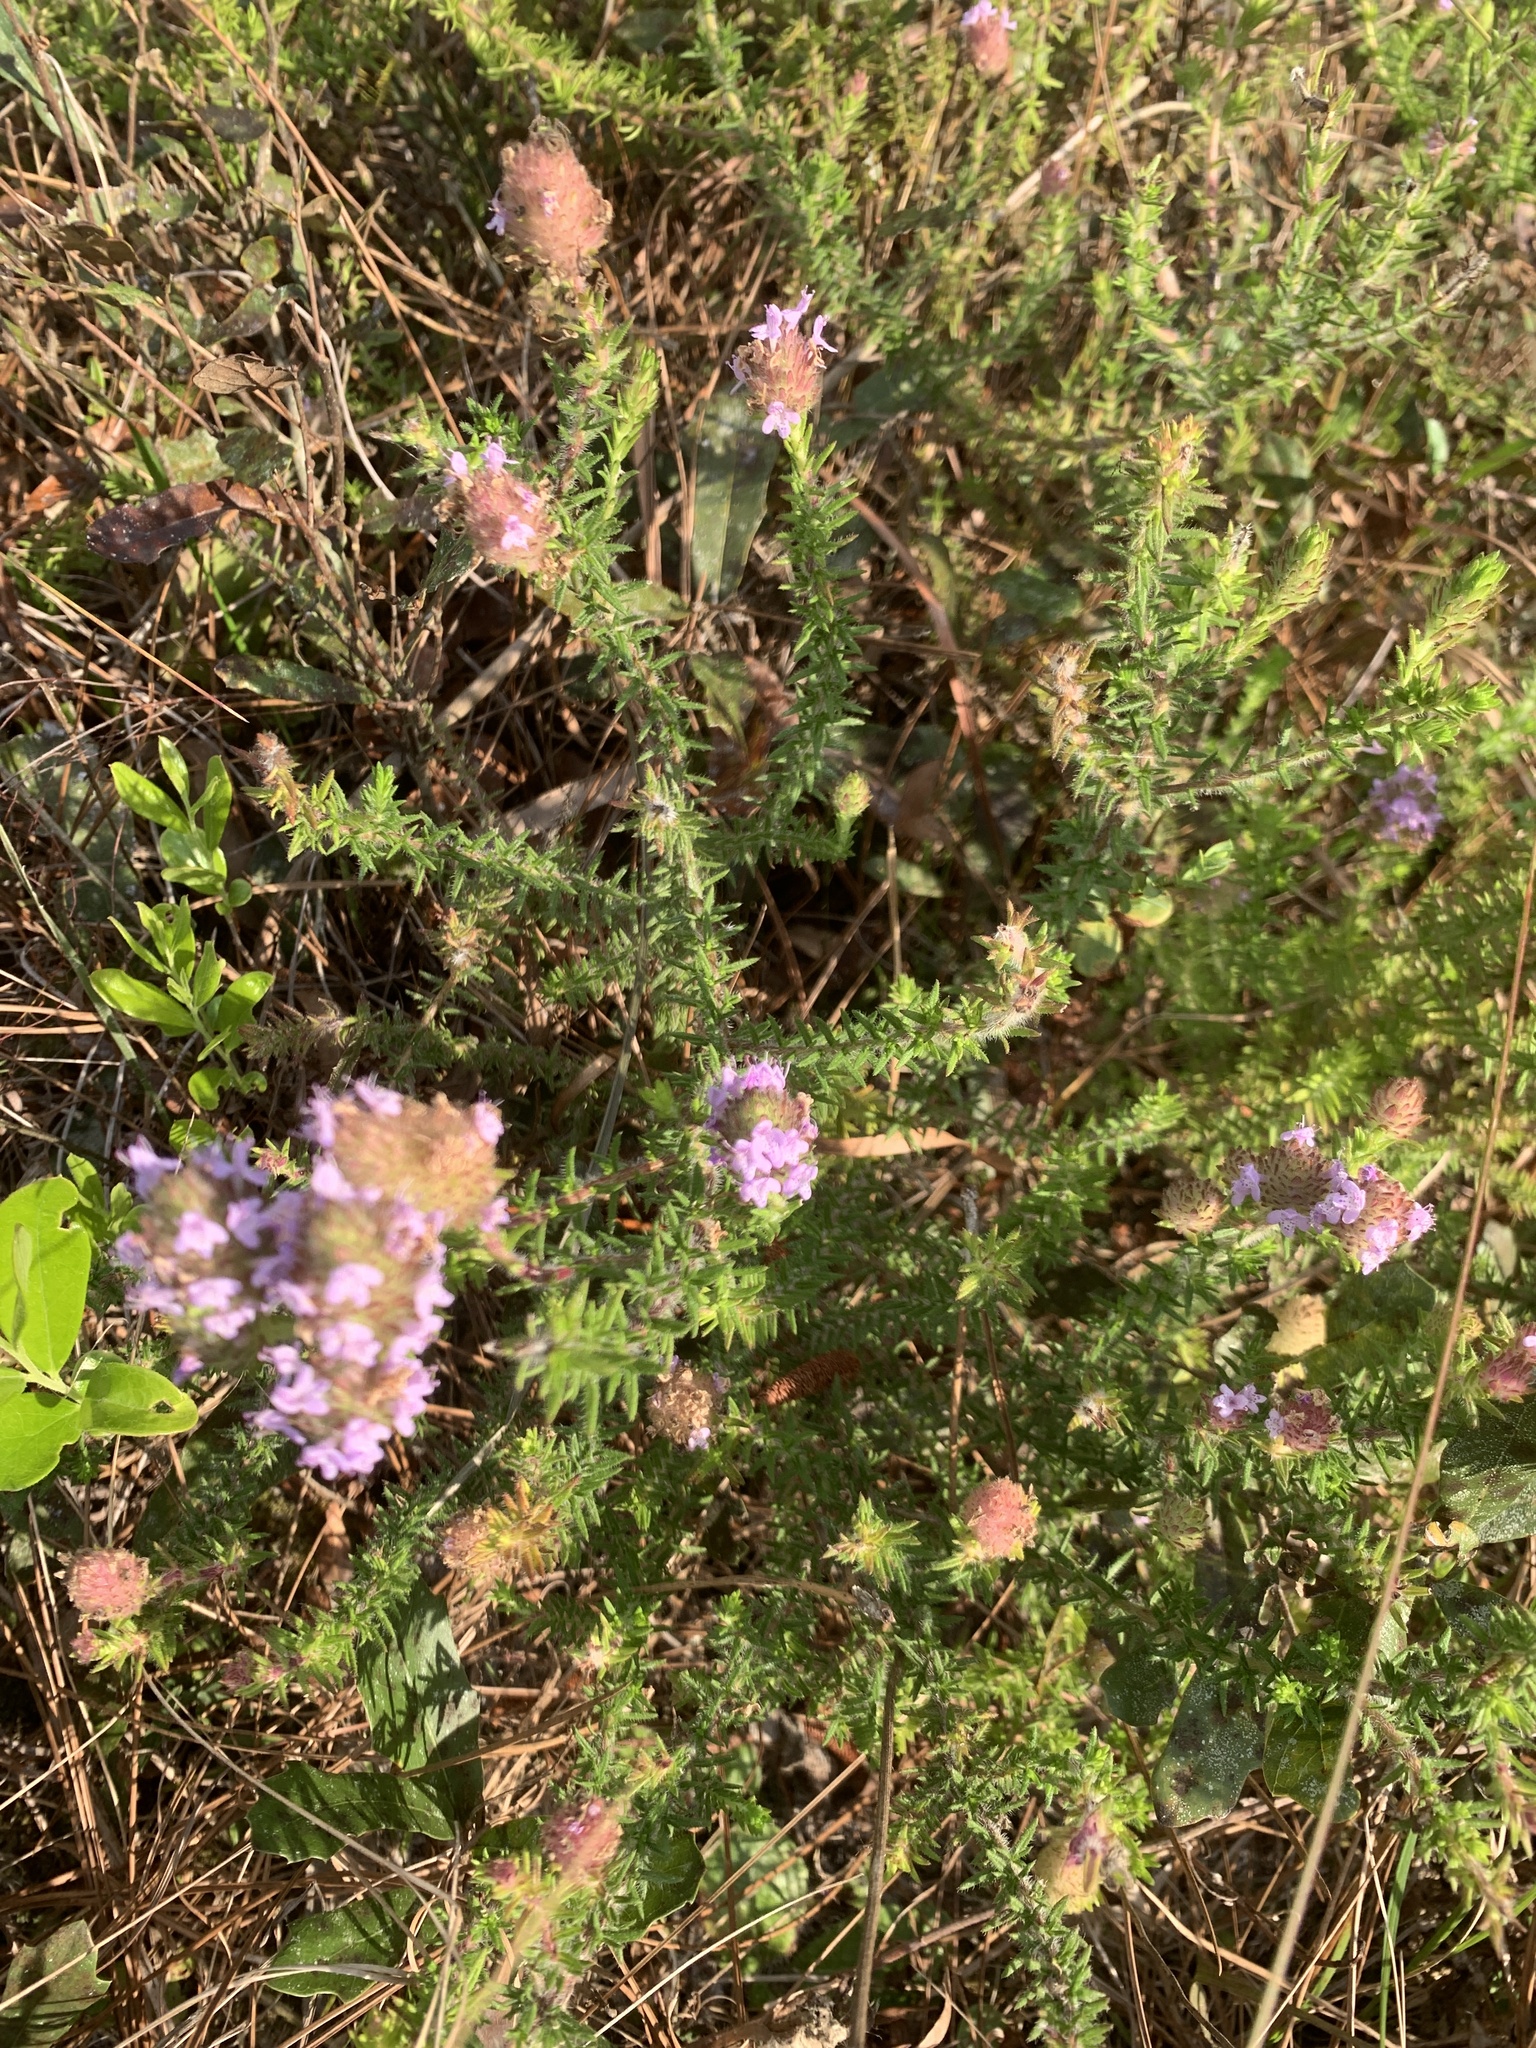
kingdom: Plantae
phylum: Tracheophyta
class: Magnoliopsida
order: Lamiales
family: Lamiaceae
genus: Piloblephis
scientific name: Piloblephis rigida
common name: Wild pennyroyal
